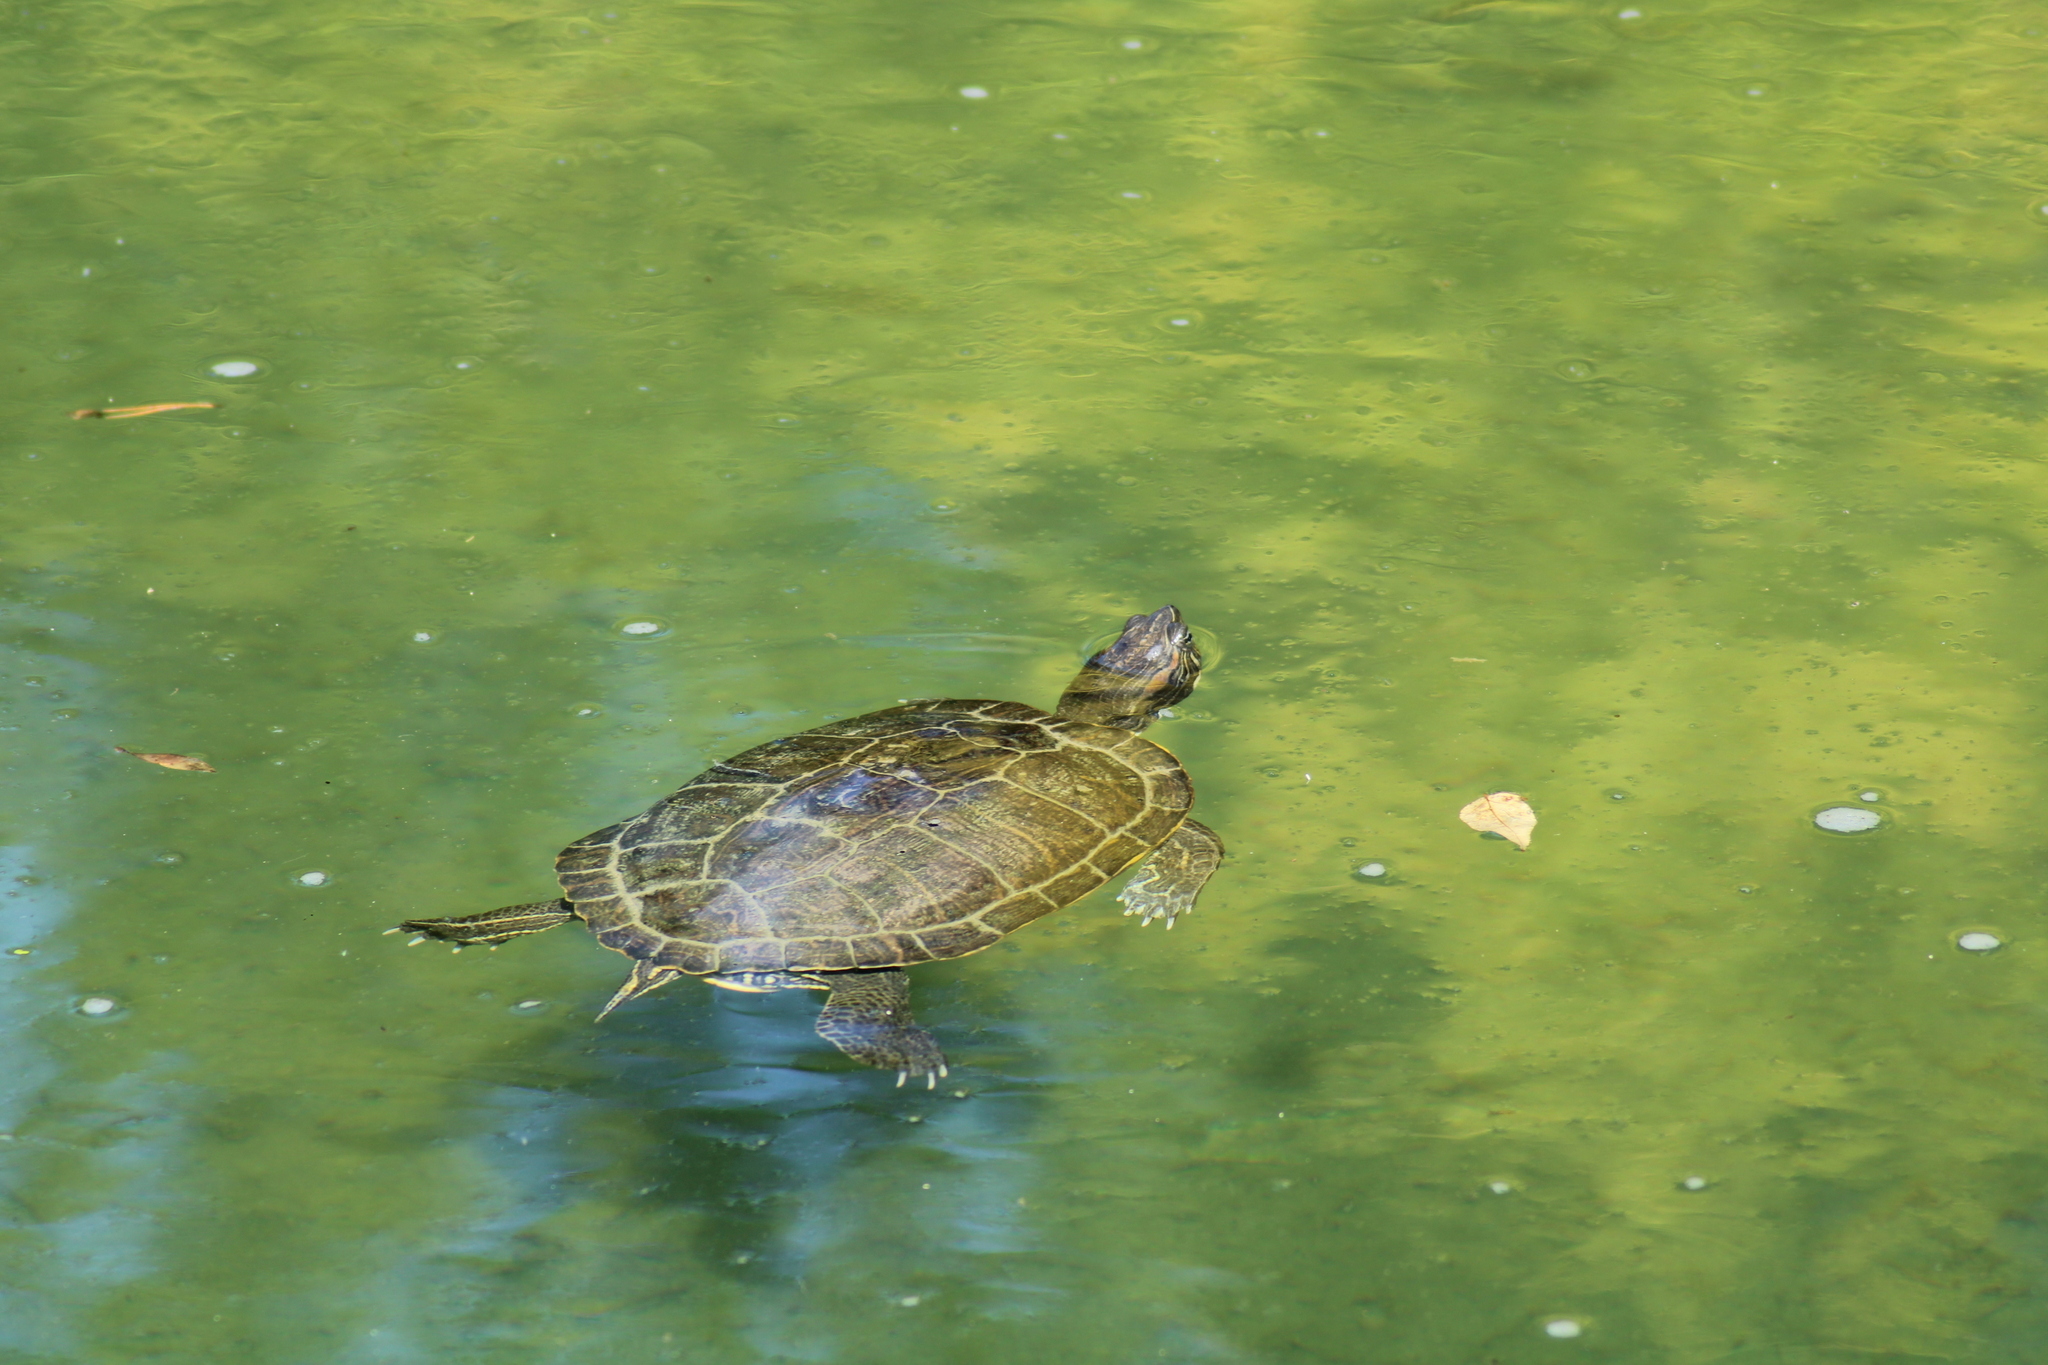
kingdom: Animalia
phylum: Chordata
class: Testudines
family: Emydidae
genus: Trachemys
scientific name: Trachemys scripta
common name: Slider
